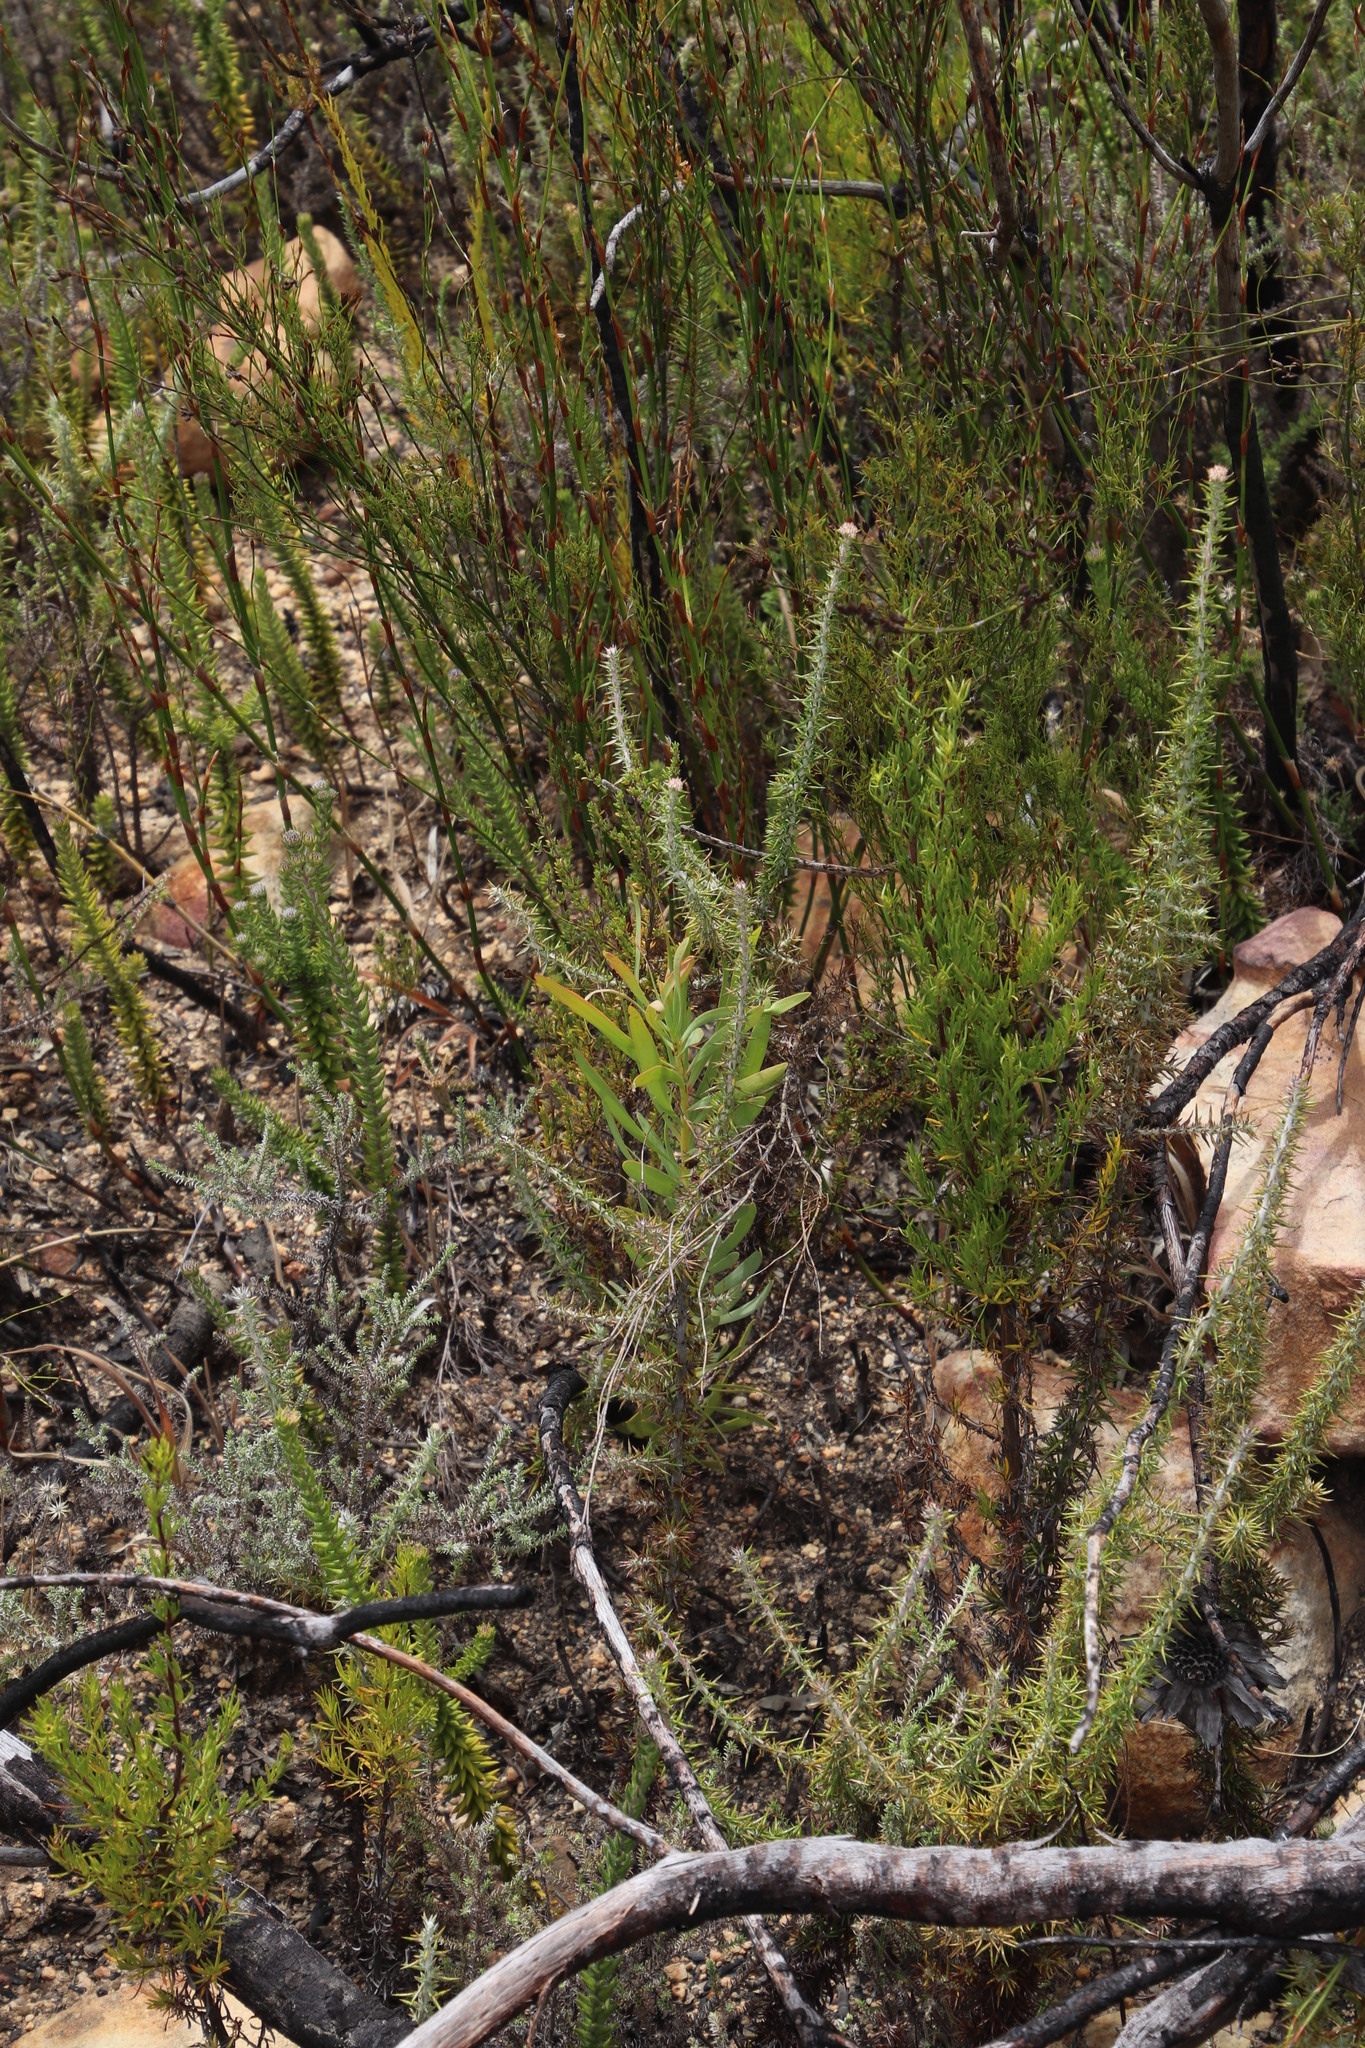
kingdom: Plantae
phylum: Tracheophyta
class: Magnoliopsida
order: Proteales
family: Proteaceae
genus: Protea
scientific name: Protea repens
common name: Sugarbush
